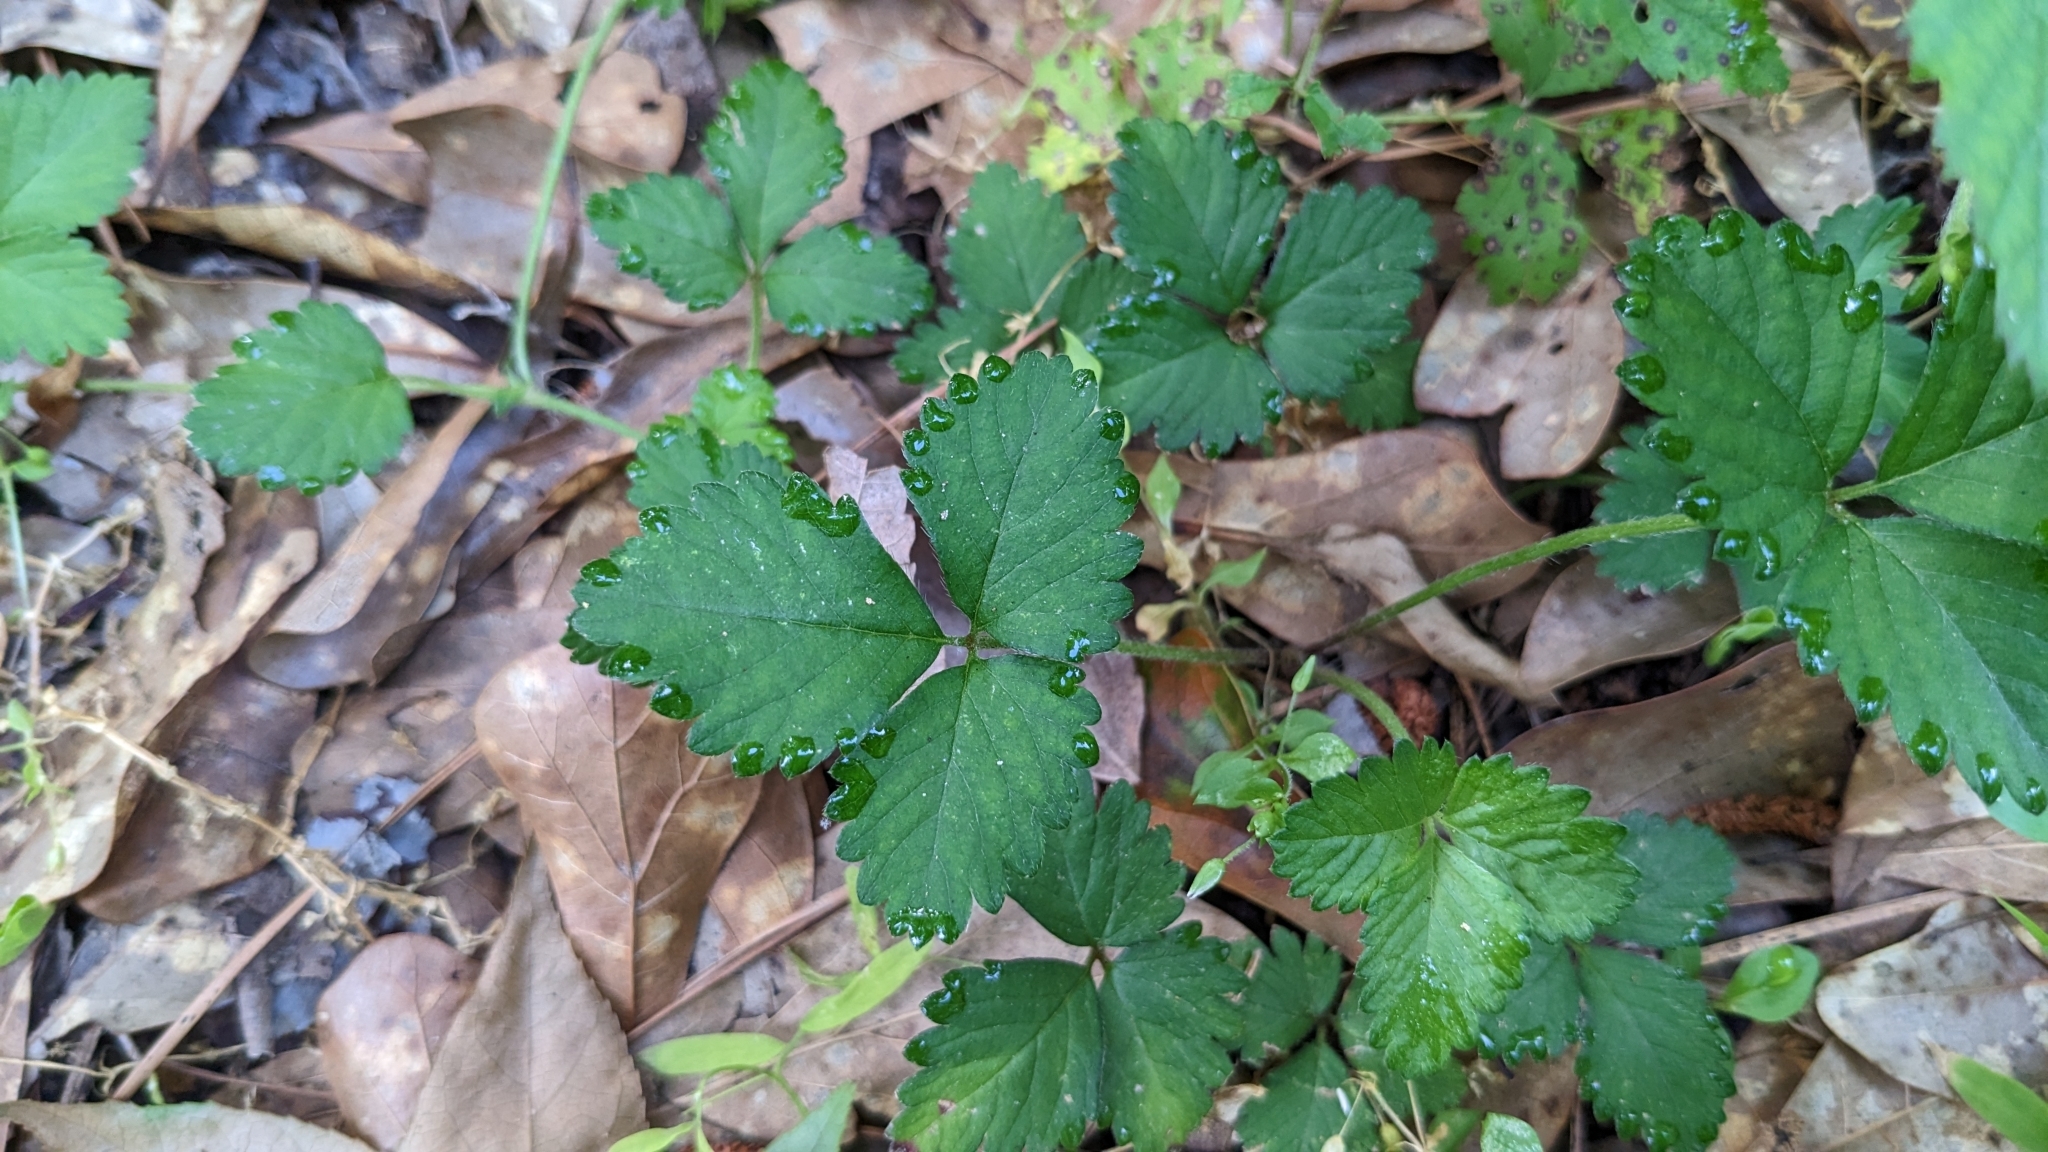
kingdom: Plantae
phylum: Tracheophyta
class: Magnoliopsida
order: Rosales
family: Rosaceae
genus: Potentilla
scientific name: Potentilla indica
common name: Yellow-flowered strawberry
